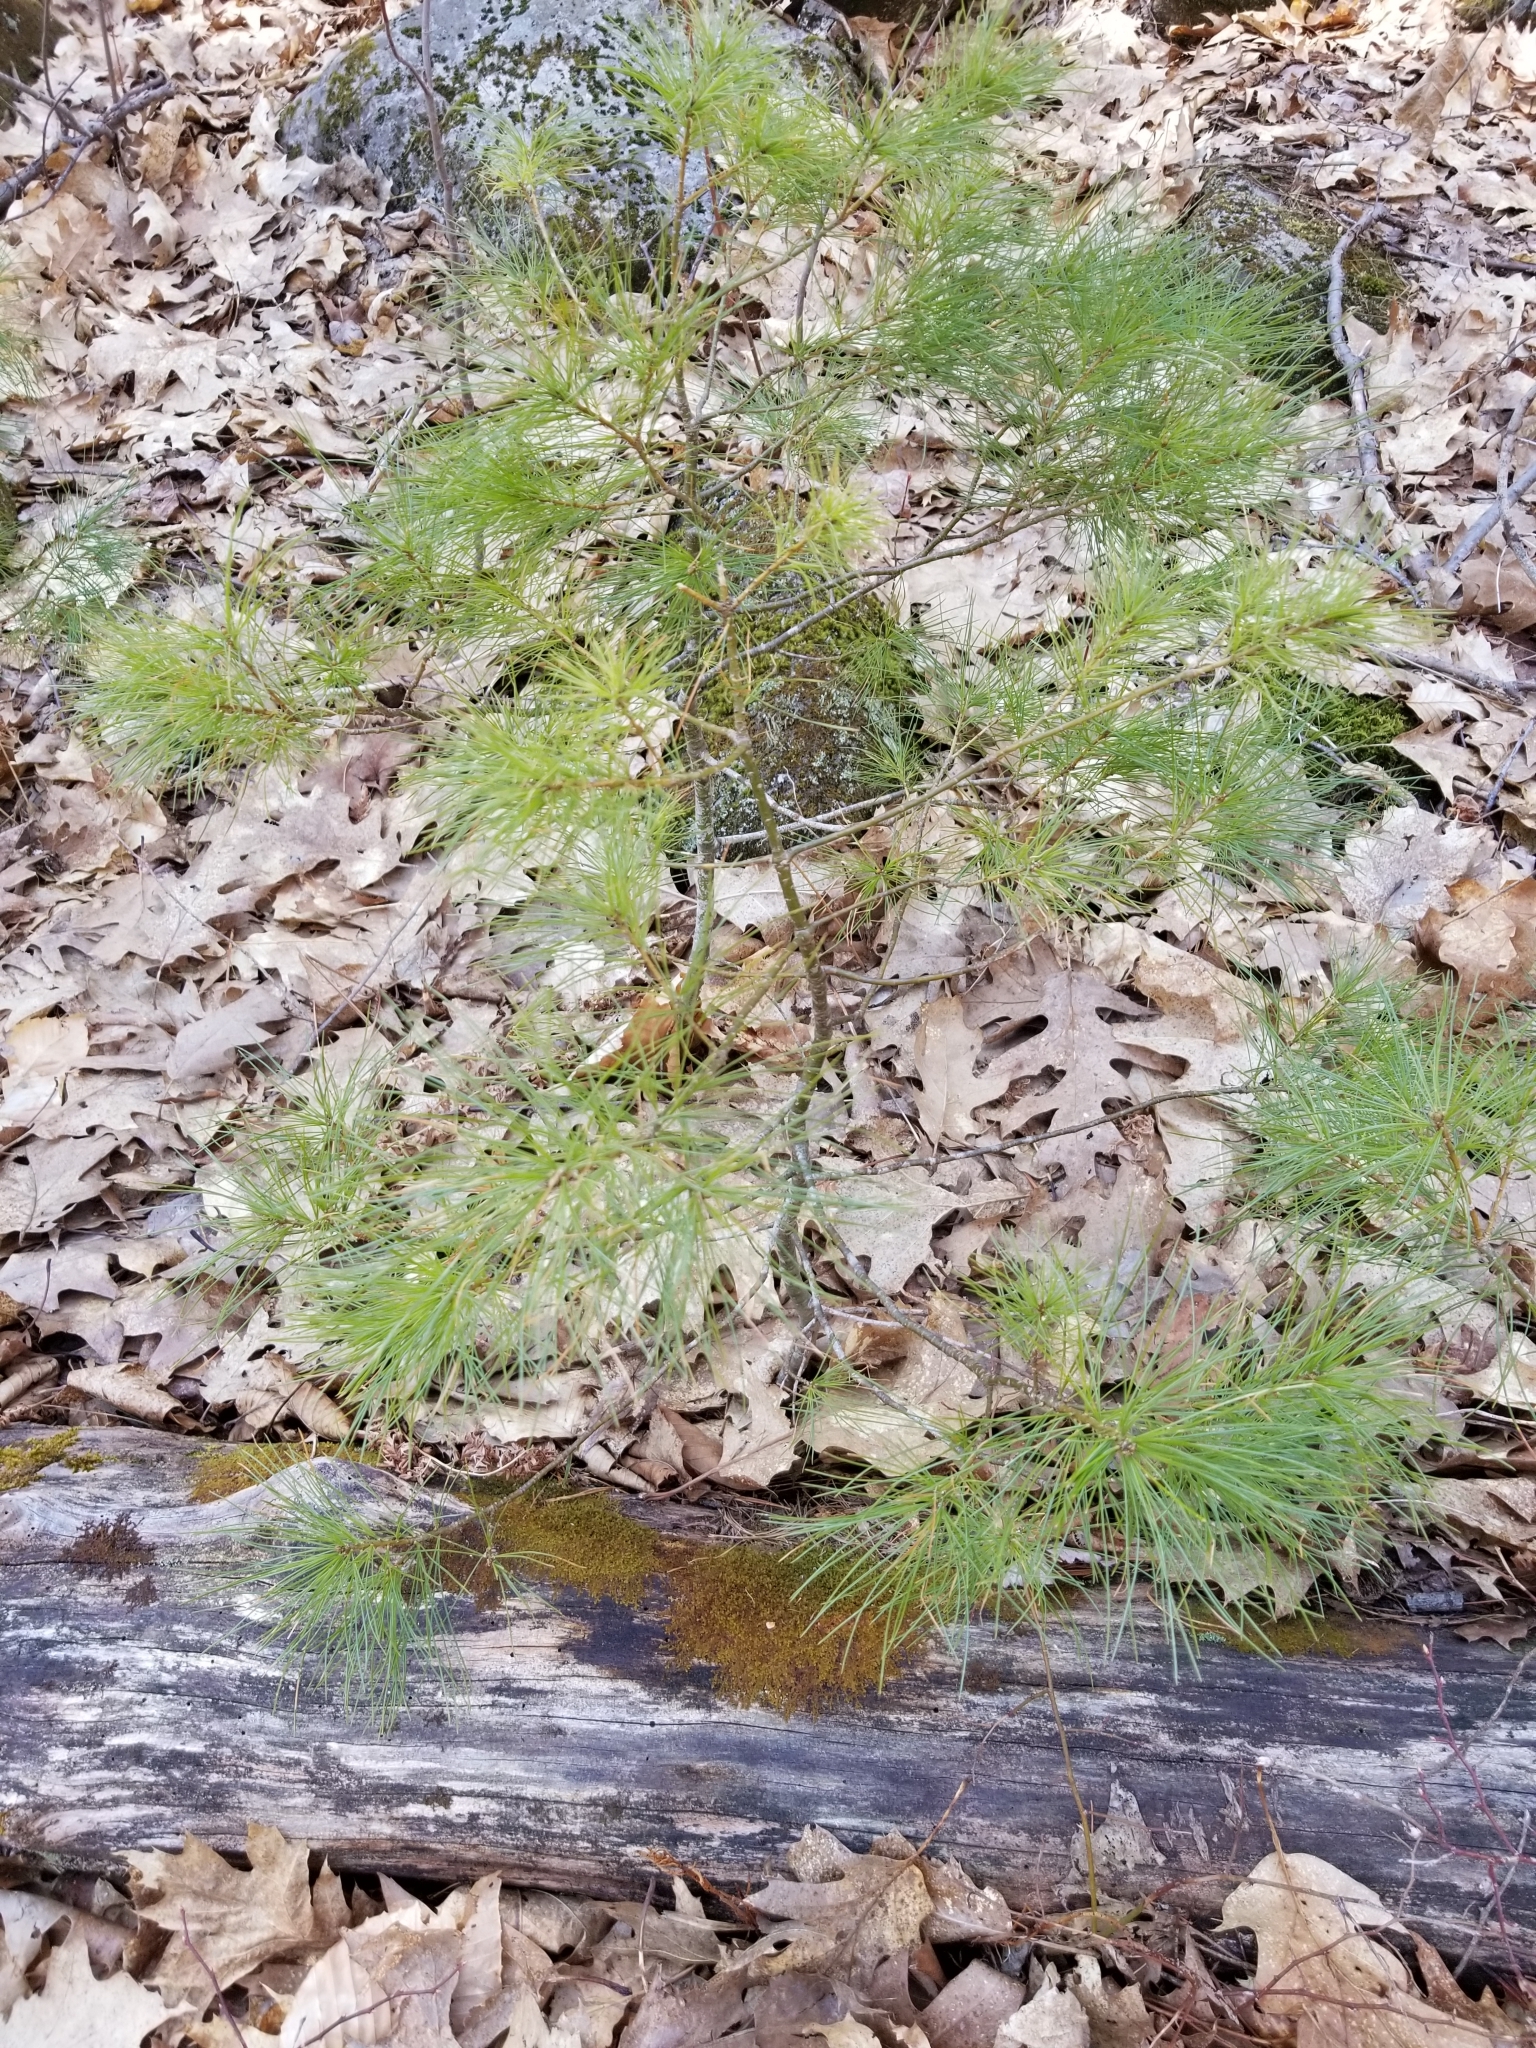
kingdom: Plantae
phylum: Tracheophyta
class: Pinopsida
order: Pinales
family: Pinaceae
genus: Pinus
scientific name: Pinus strobus
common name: Weymouth pine
